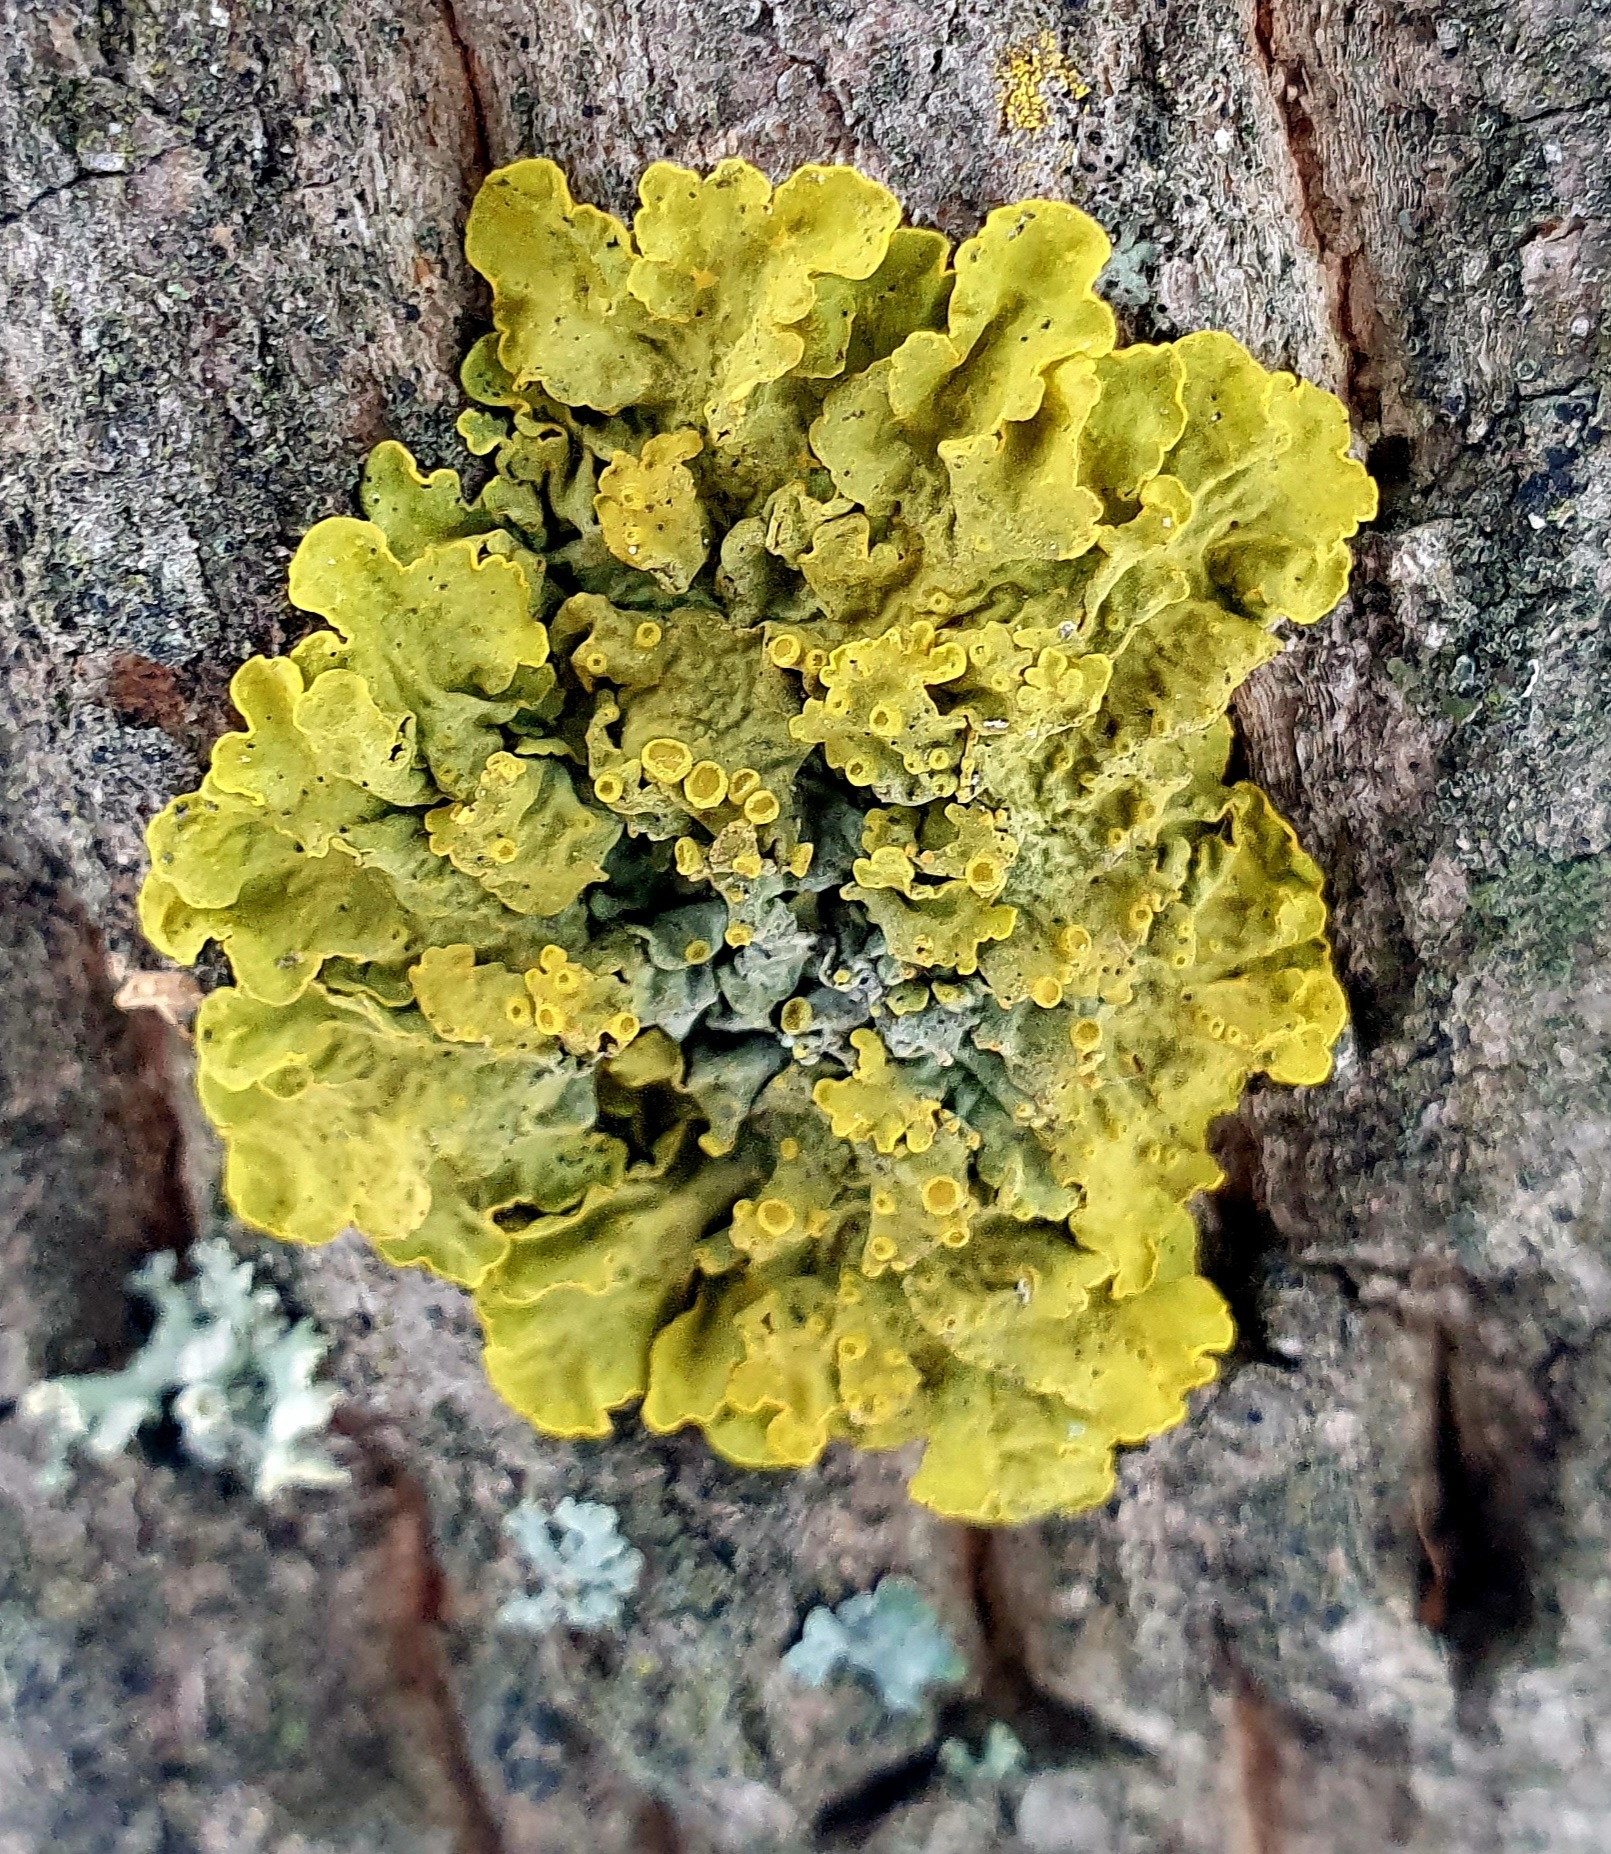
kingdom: Fungi
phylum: Ascomycota
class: Lecanoromycetes
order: Teloschistales
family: Teloschistaceae
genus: Xanthoria
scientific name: Xanthoria parietina
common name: Common orange lichen
